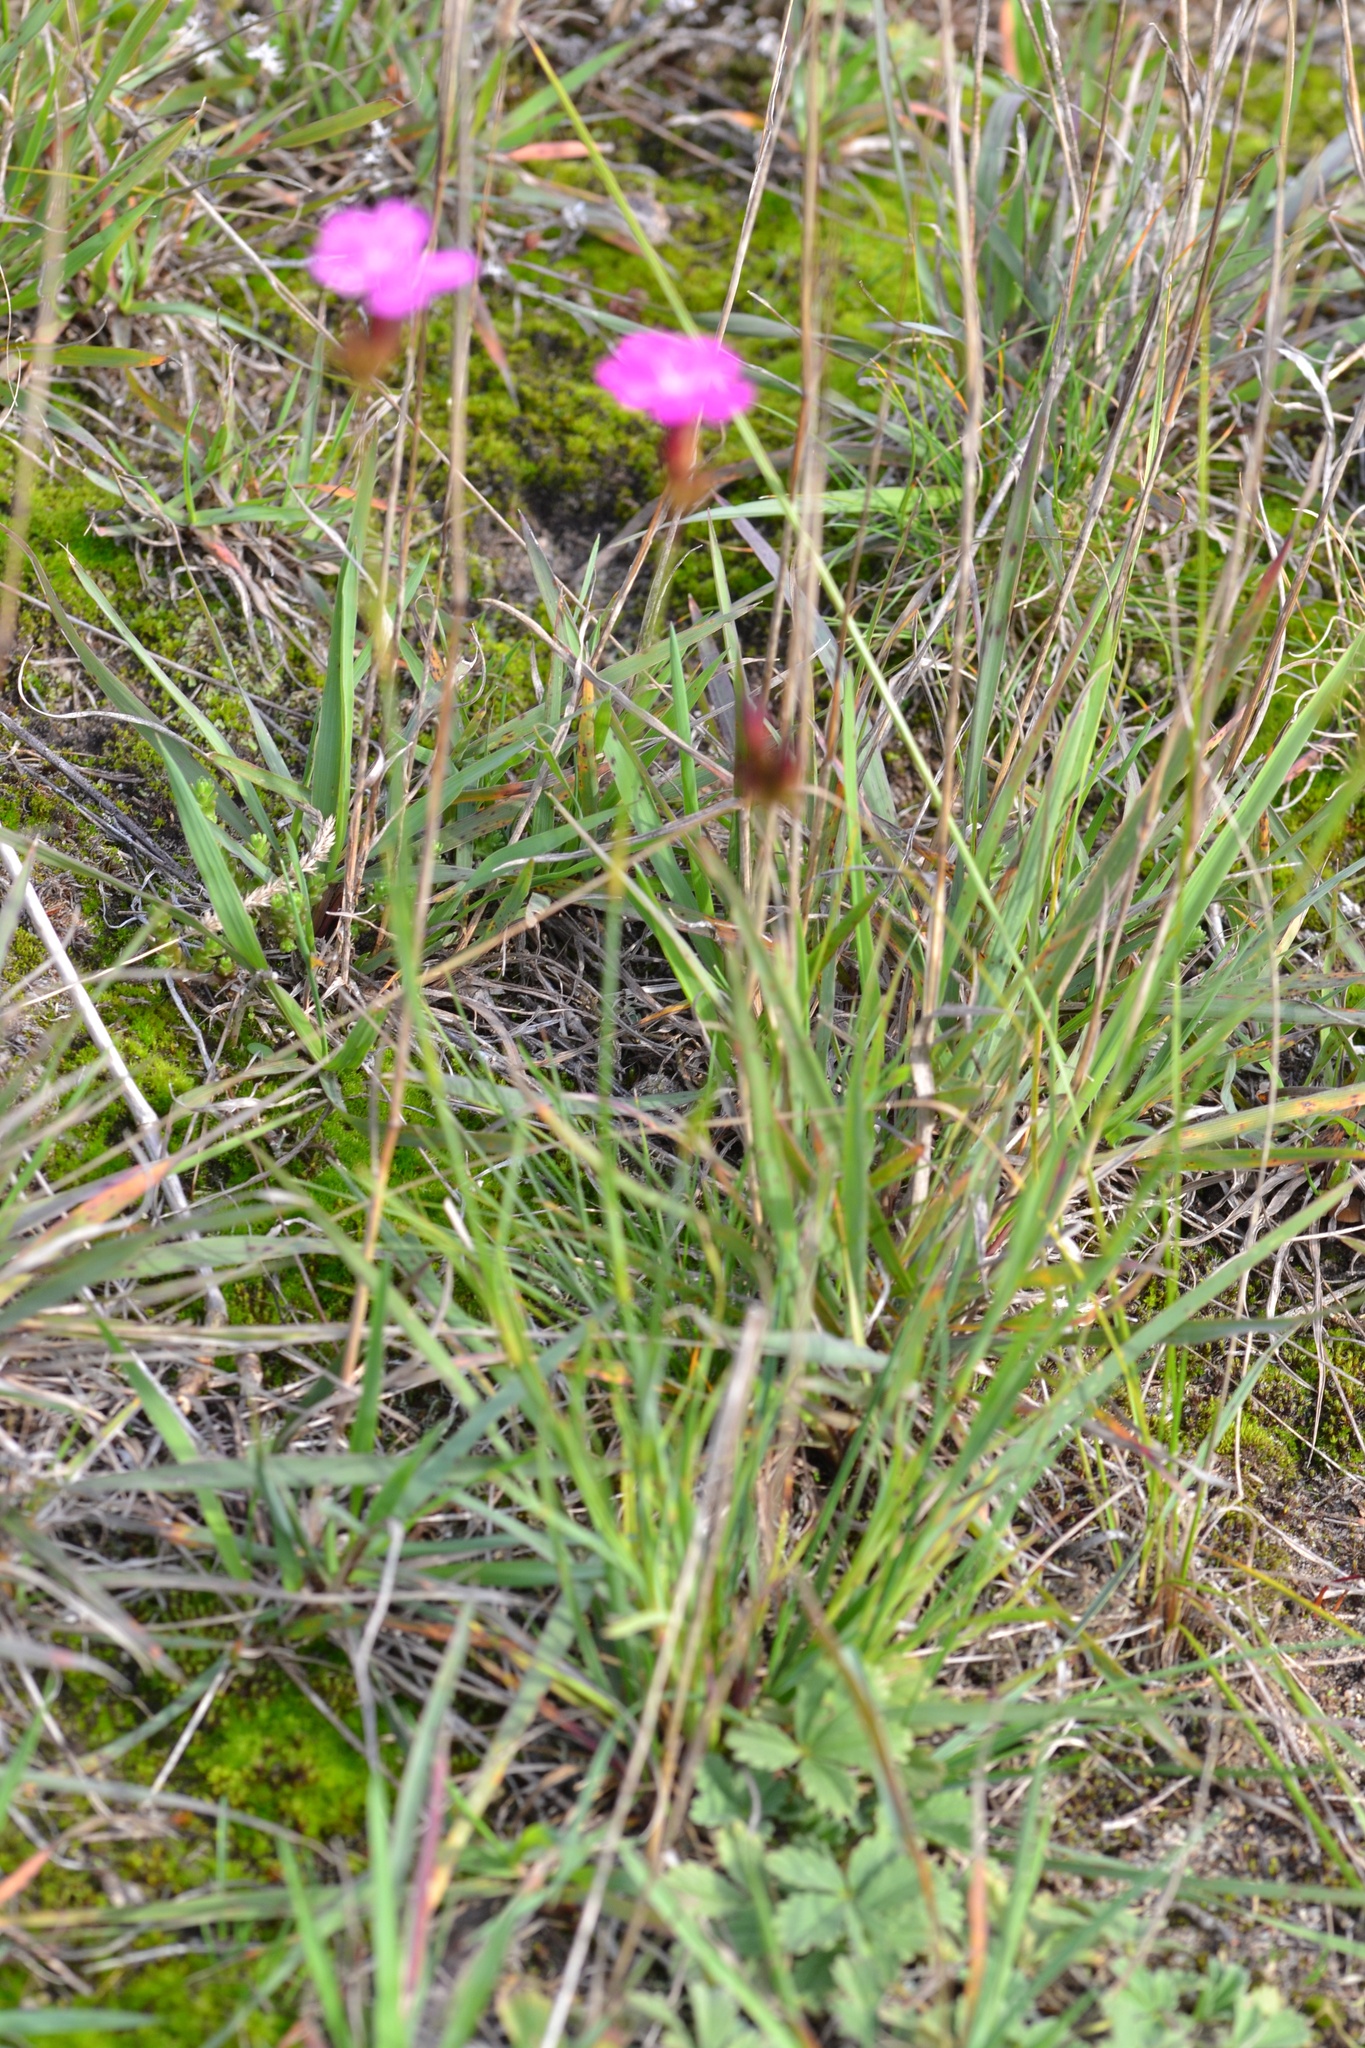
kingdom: Plantae
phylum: Tracheophyta
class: Magnoliopsida
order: Caryophyllales
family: Caryophyllaceae
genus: Dianthus
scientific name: Dianthus carthusianorum
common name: Carthusian pink
